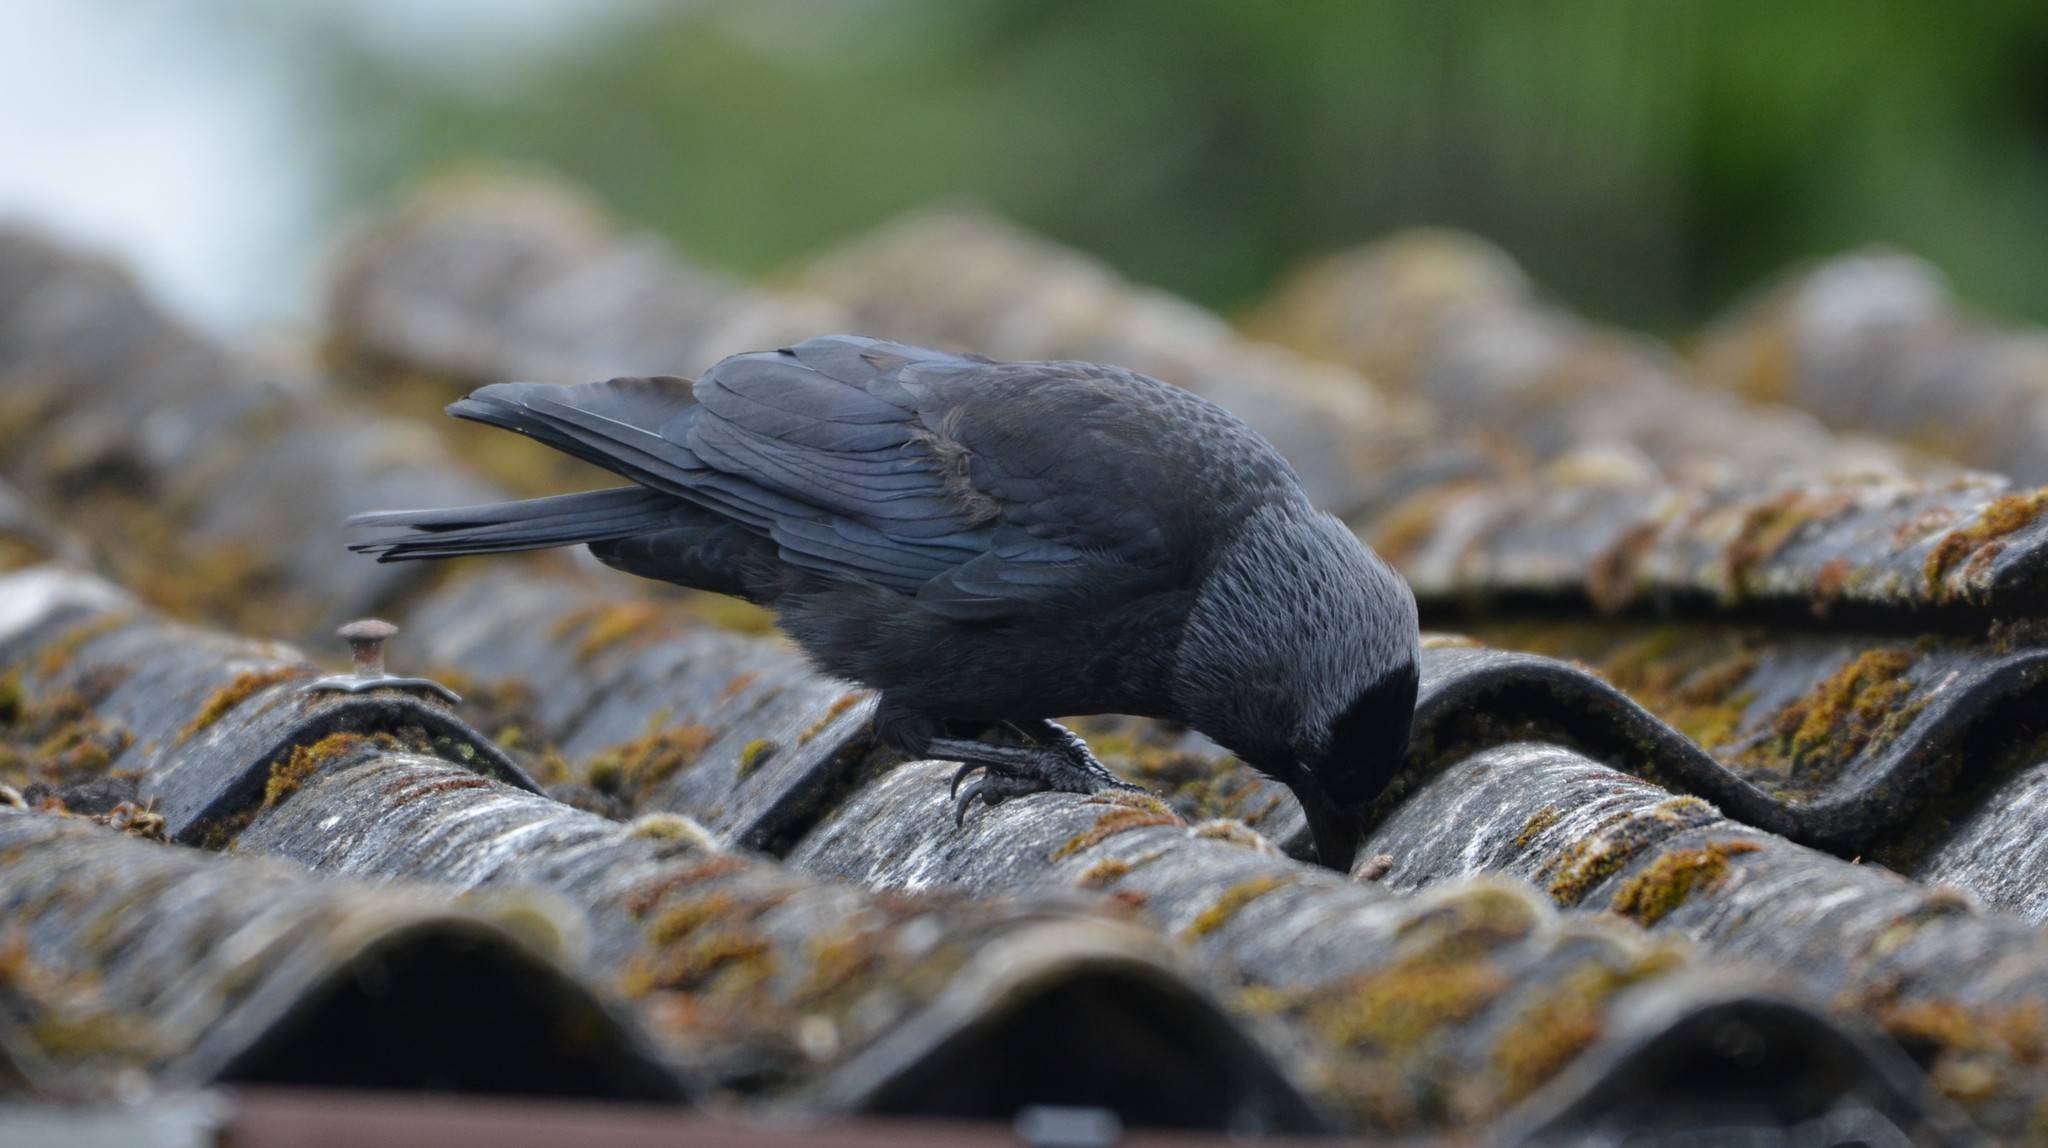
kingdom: Animalia
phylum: Chordata
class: Aves
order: Passeriformes
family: Corvidae
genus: Coloeus
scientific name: Coloeus monedula
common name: Western jackdaw
